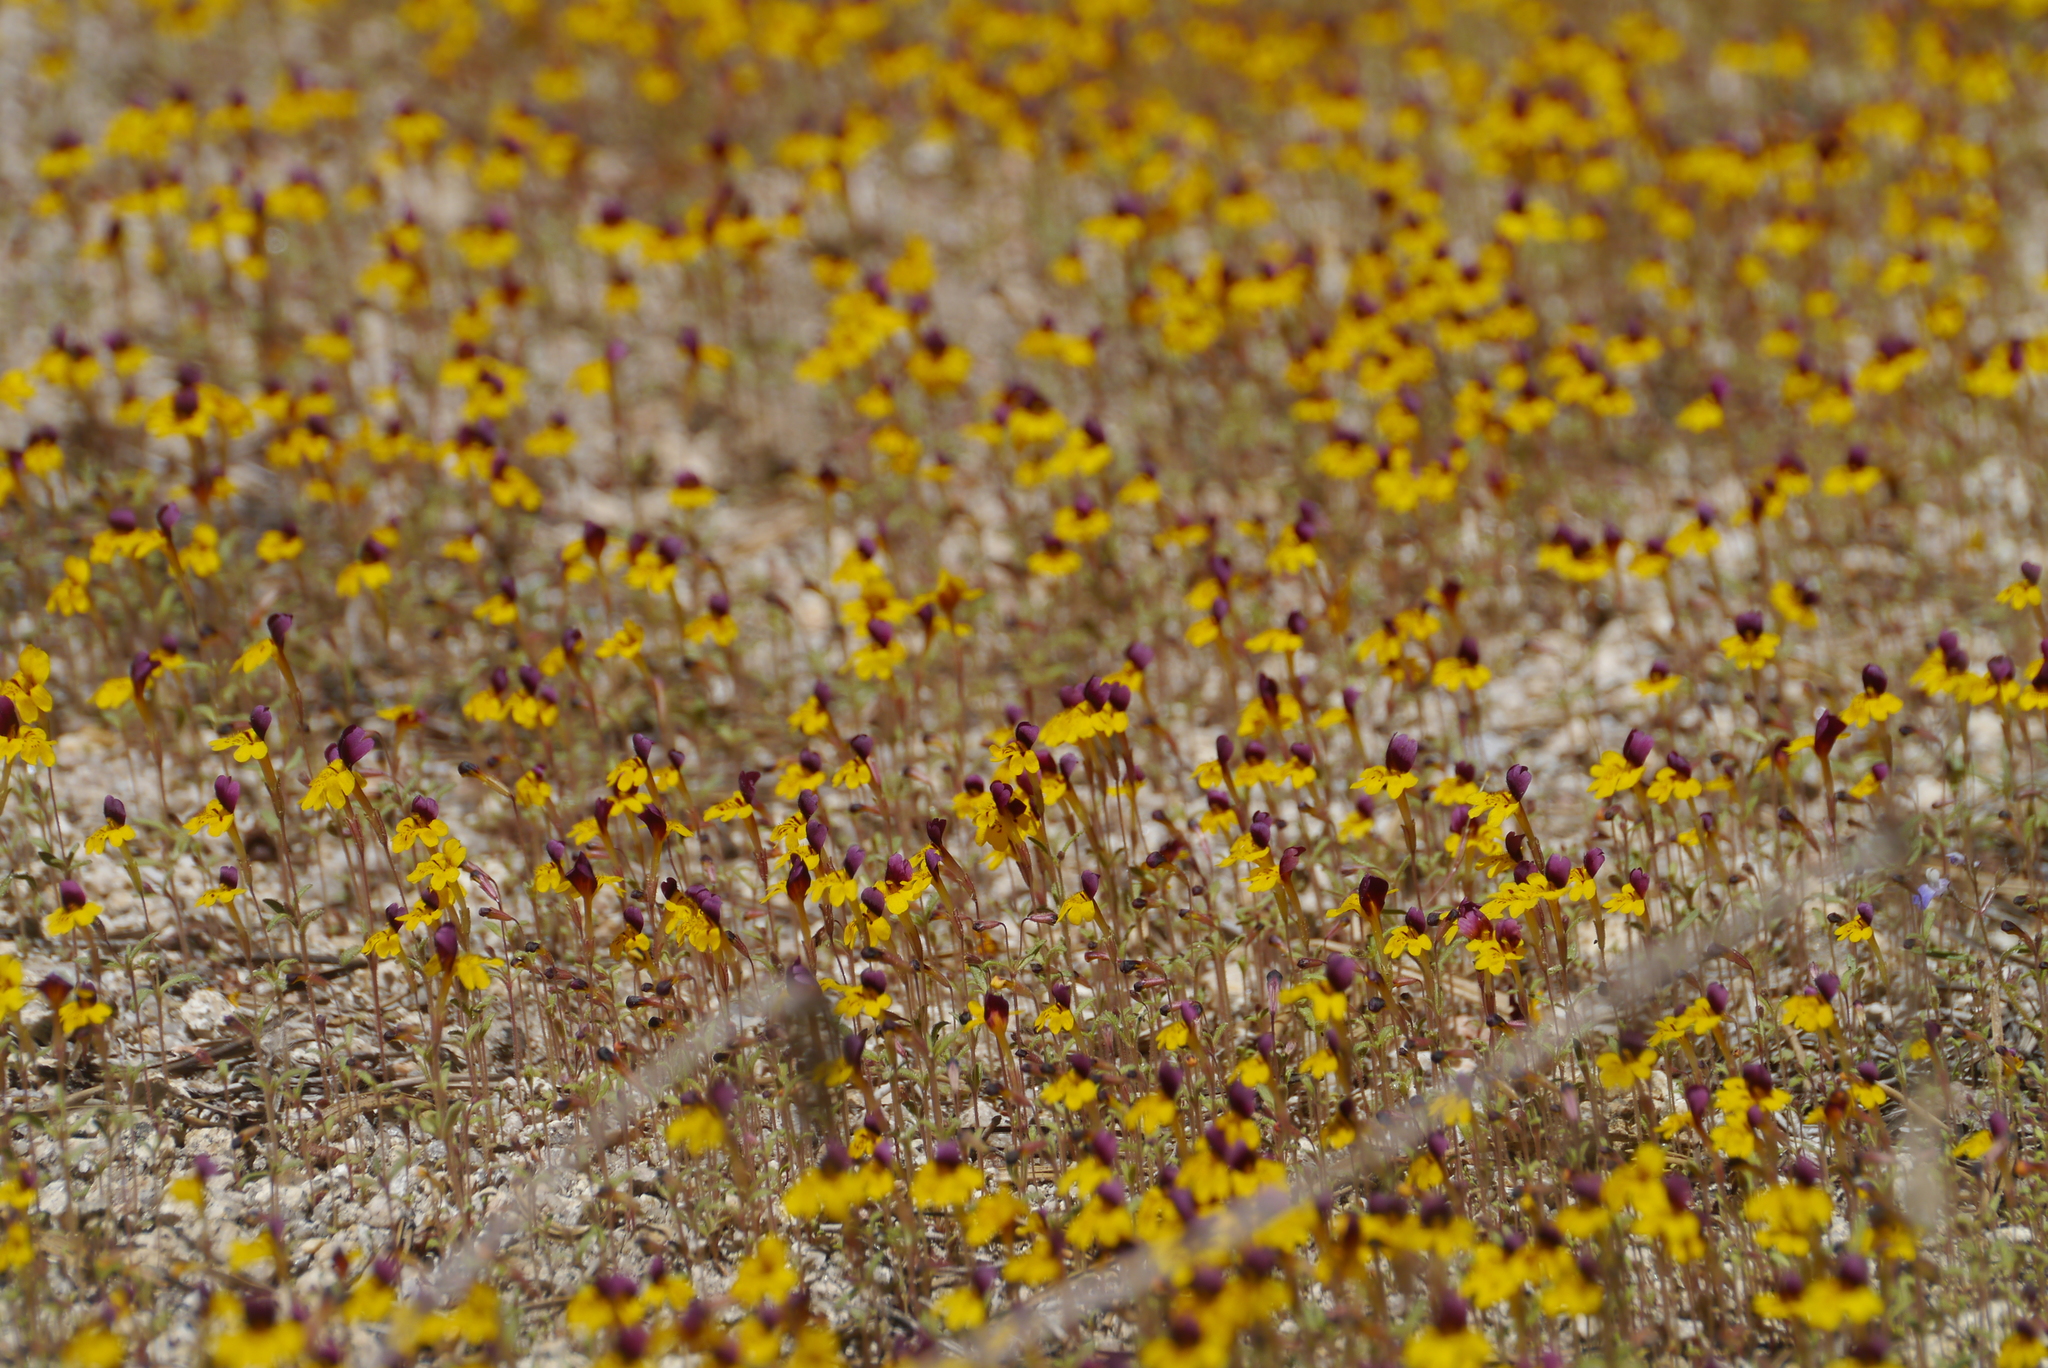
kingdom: Plantae
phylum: Tracheophyta
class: Magnoliopsida
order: Lamiales
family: Phrymaceae
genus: Erythranthe
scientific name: Erythranthe barbata
